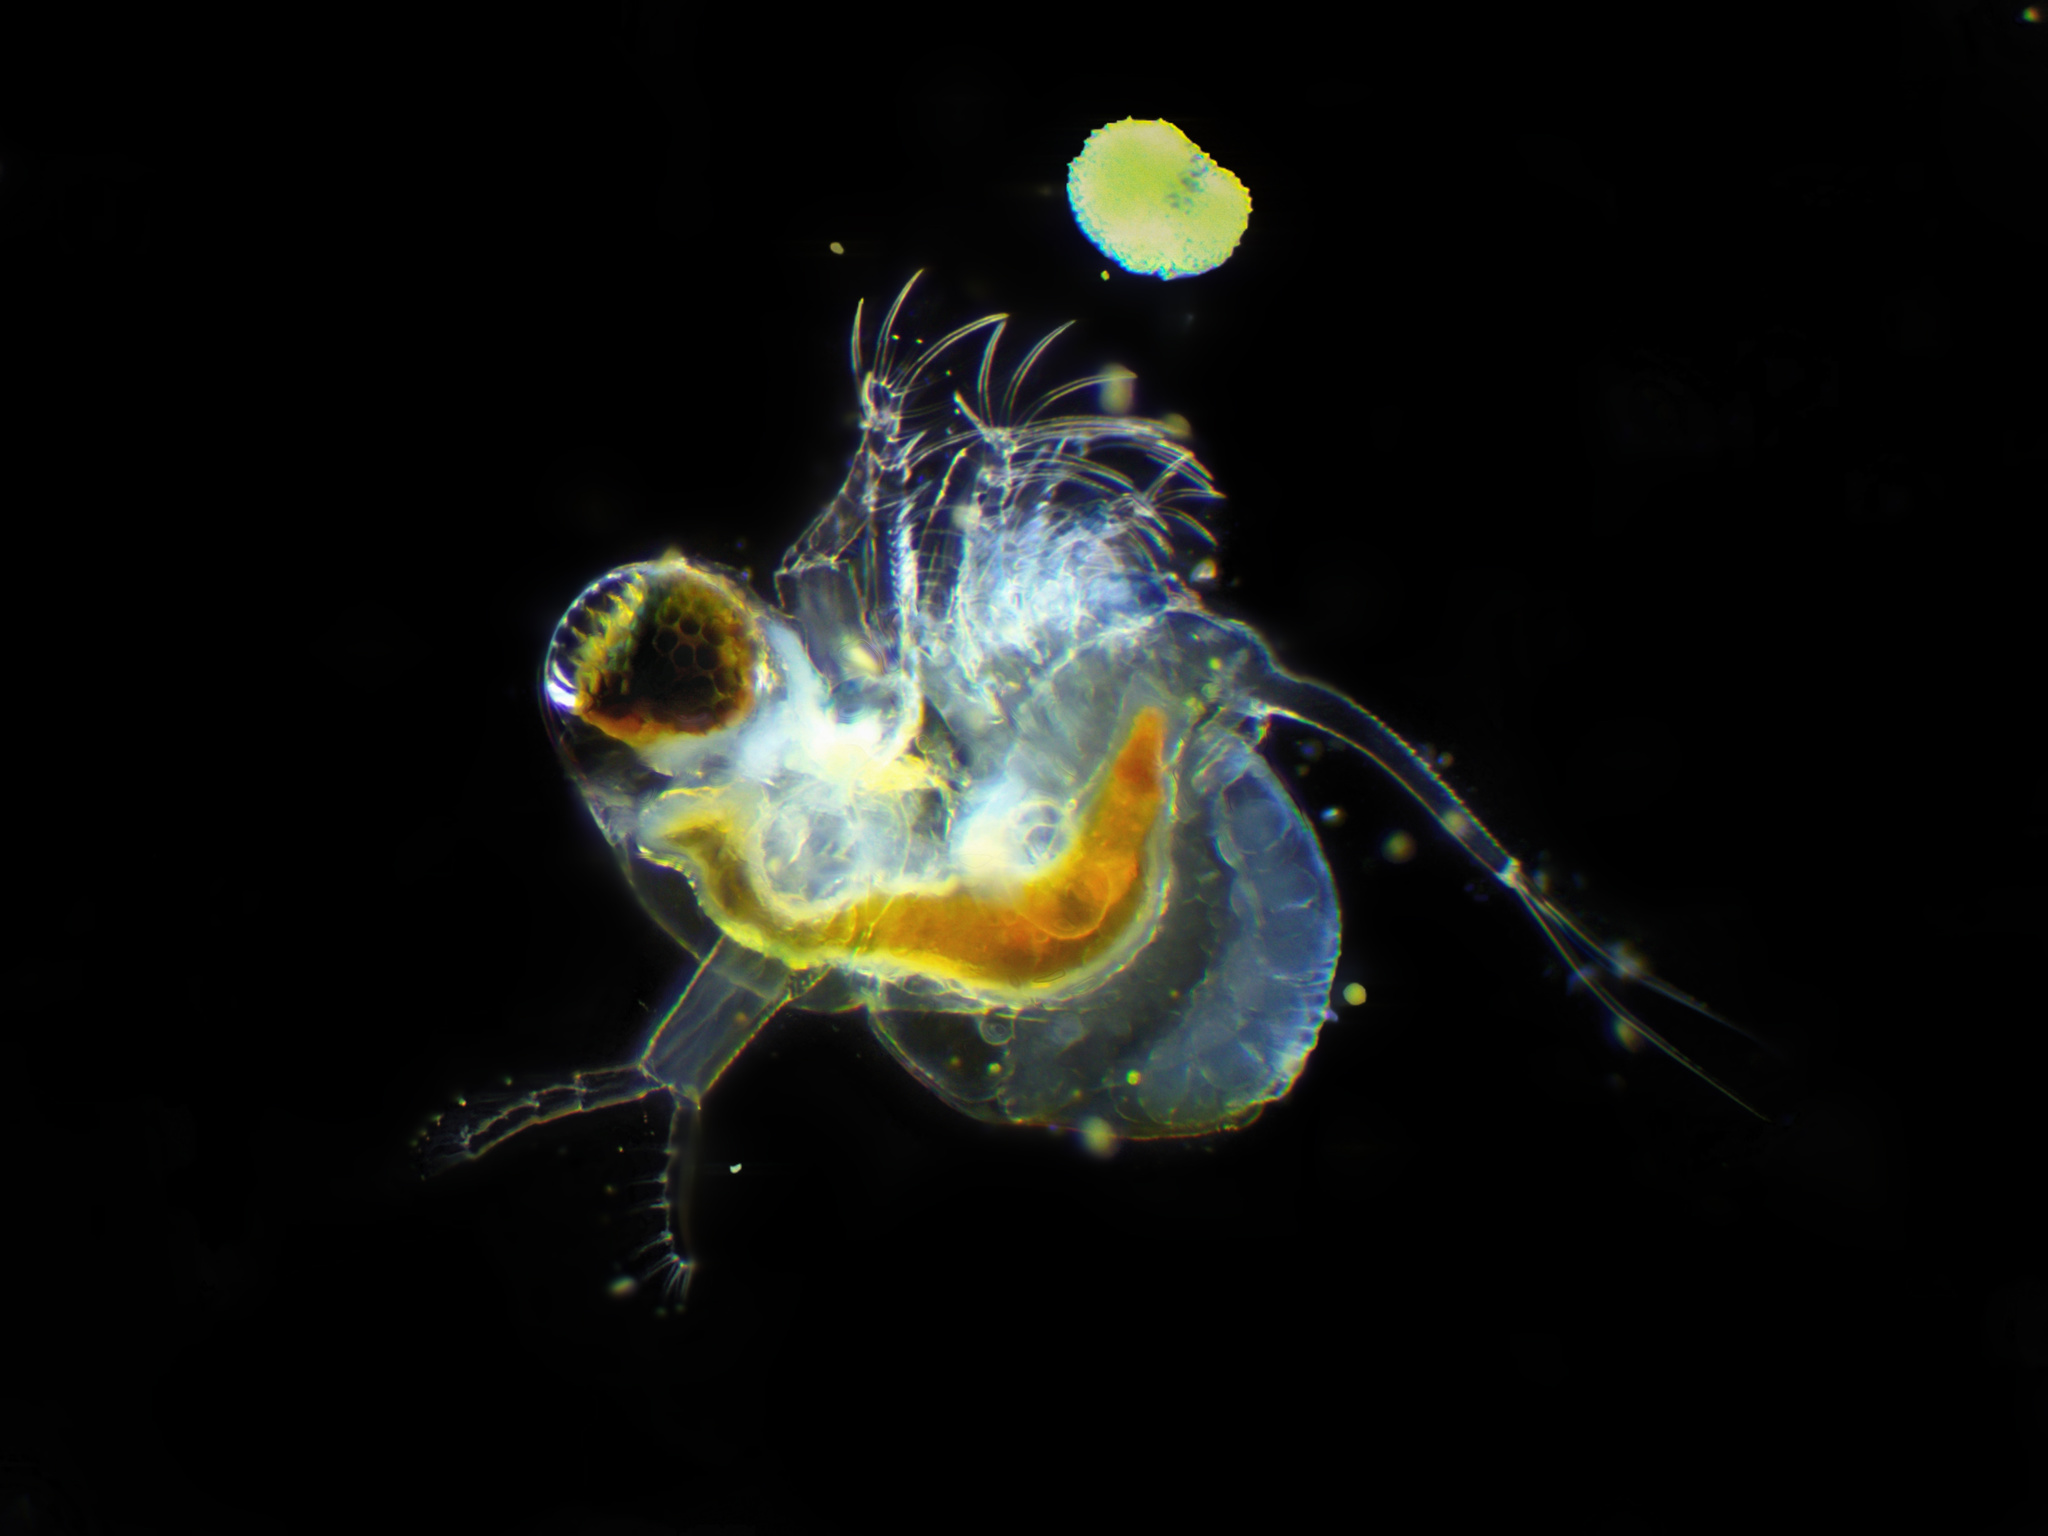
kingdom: Animalia
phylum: Arthropoda
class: Branchiopoda
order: Diplostraca
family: Polyphemidae
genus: Polyphemus
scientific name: Polyphemus pediculus
